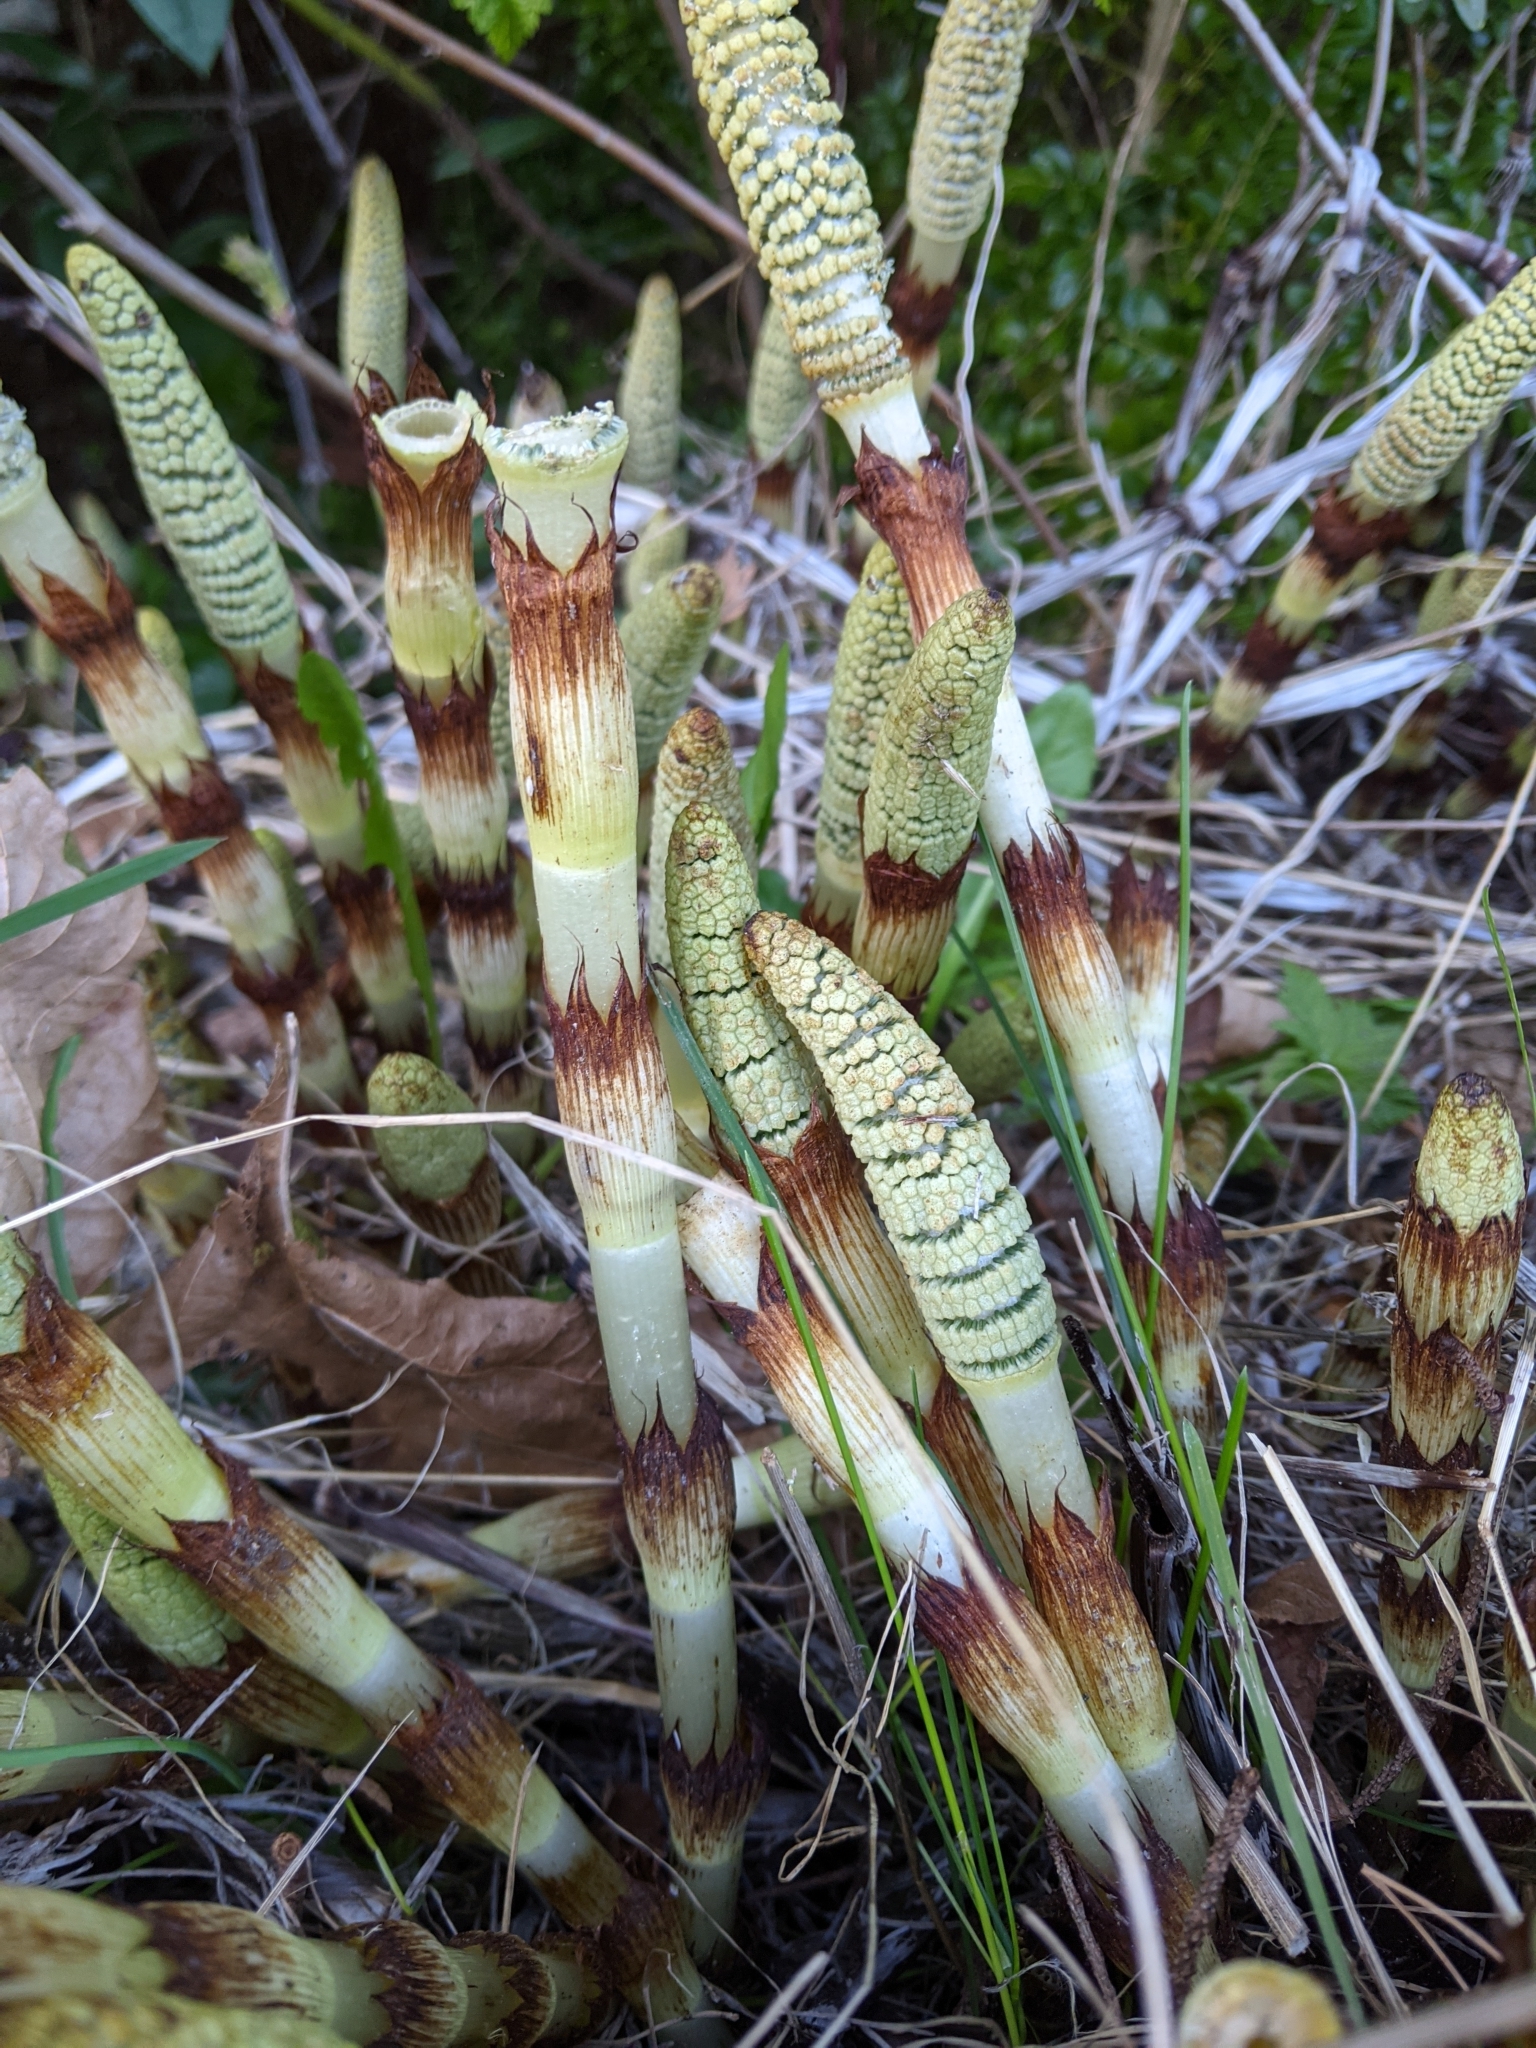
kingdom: Plantae
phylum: Tracheophyta
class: Polypodiopsida
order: Equisetales
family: Equisetaceae
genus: Equisetum
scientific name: Equisetum telmateia
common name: Great horsetail
